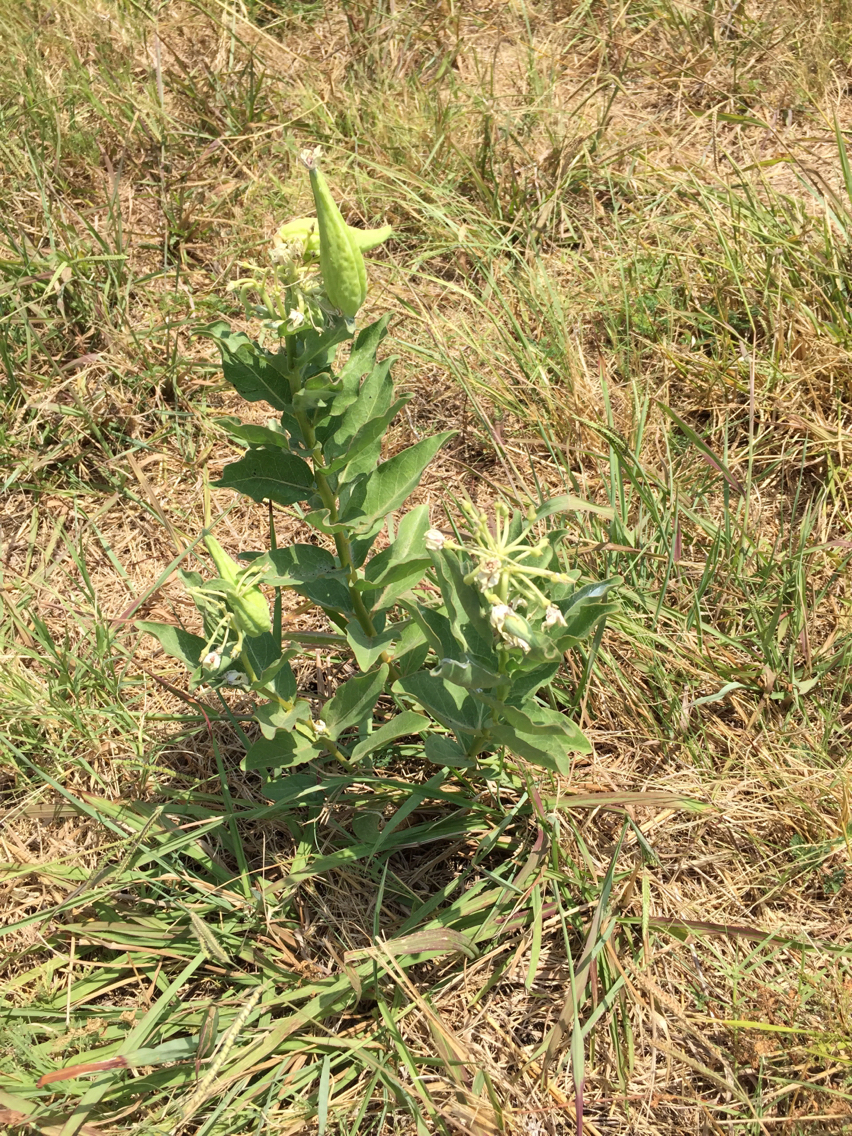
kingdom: Plantae
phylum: Tracheophyta
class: Magnoliopsida
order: Gentianales
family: Apocynaceae
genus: Asclepias
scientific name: Asclepias viridis
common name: Antelope-horns
